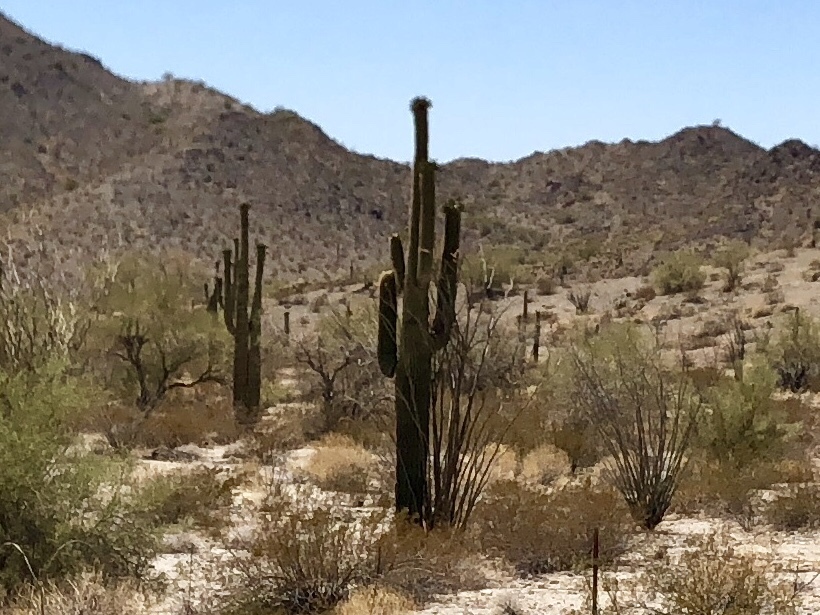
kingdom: Plantae
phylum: Tracheophyta
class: Magnoliopsida
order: Caryophyllales
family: Cactaceae
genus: Carnegiea
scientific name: Carnegiea gigantea
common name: Saguaro
